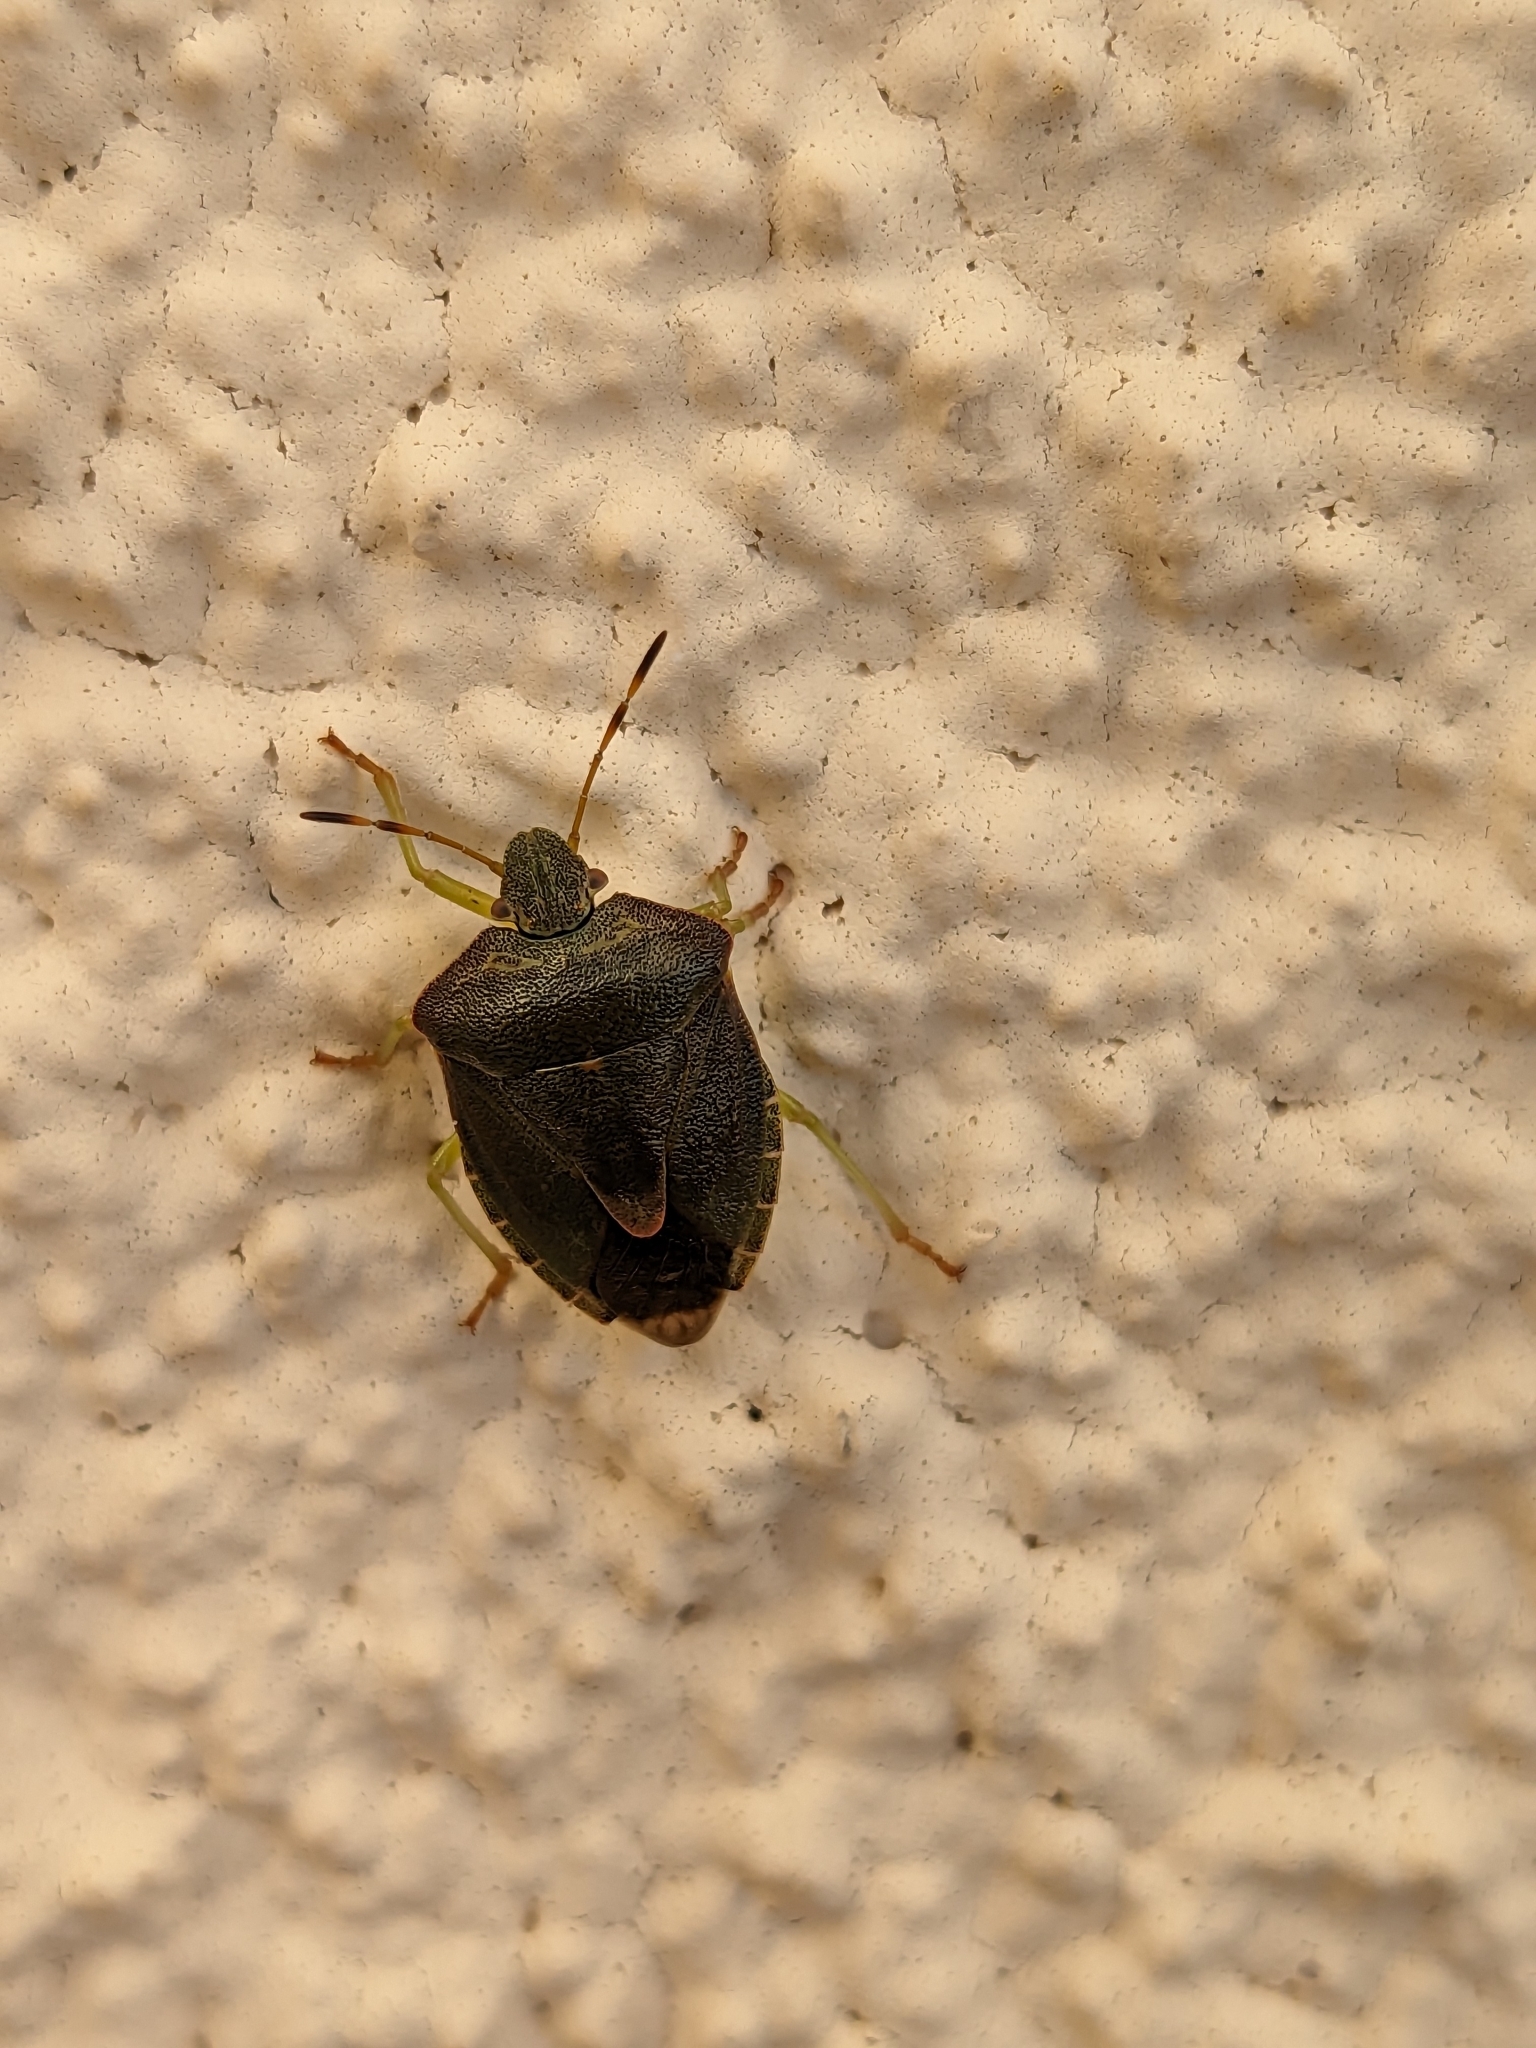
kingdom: Animalia
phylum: Arthropoda
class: Insecta
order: Hemiptera
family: Pentatomidae
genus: Palomena
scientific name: Palomena prasina
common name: Green shieldbug
